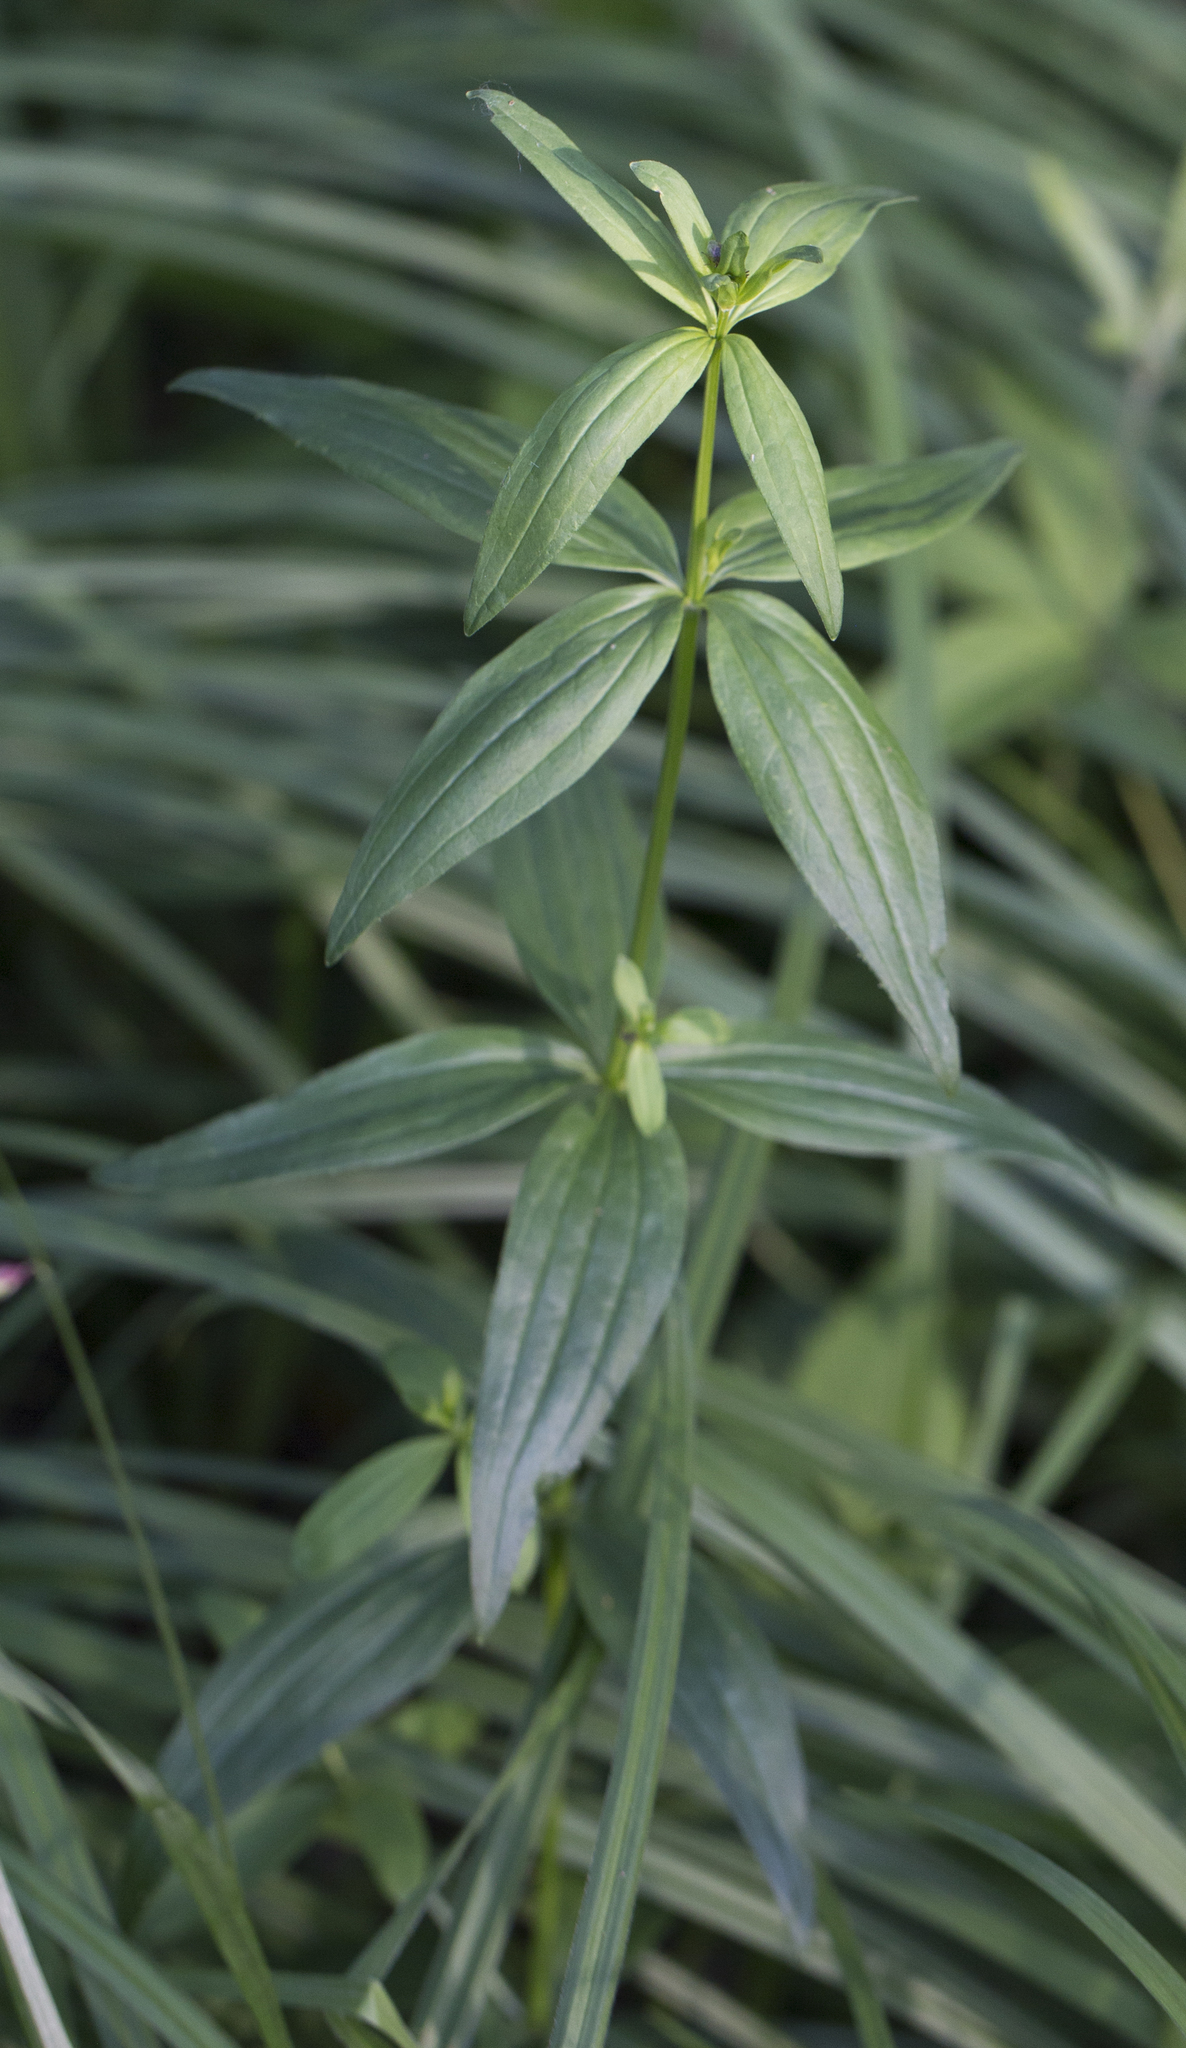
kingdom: Plantae
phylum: Tracheophyta
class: Magnoliopsida
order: Gentianales
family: Rubiaceae
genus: Galium
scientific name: Galium boreale
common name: Northern bedstraw
